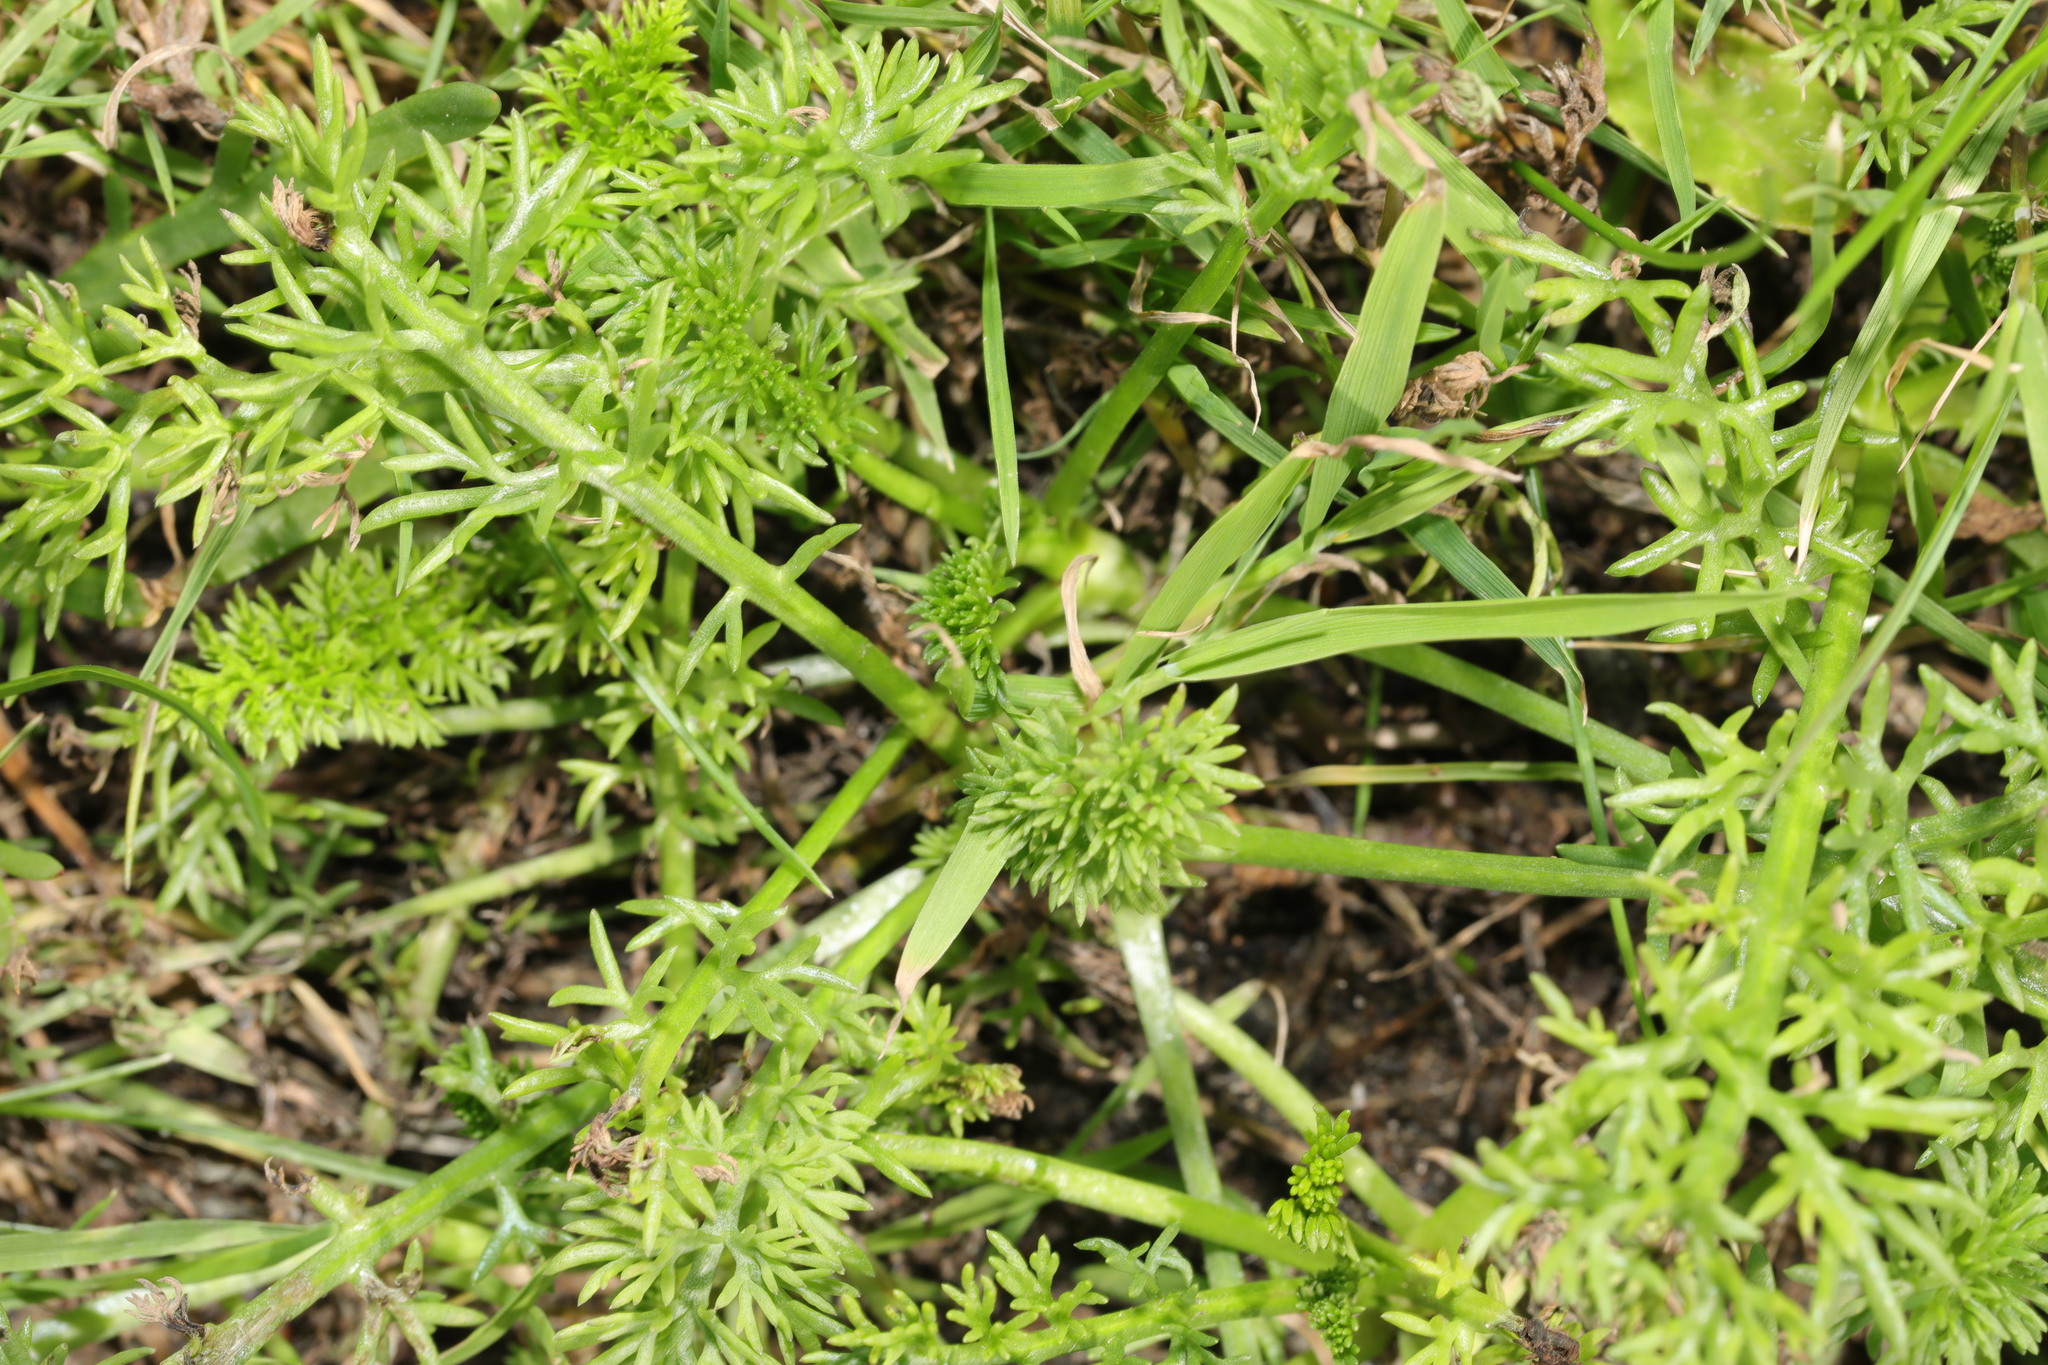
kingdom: Plantae
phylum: Tracheophyta
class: Magnoliopsida
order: Asterales
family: Asteraceae
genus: Tripleurospermum
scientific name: Tripleurospermum maritimum
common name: Sea mayweed
